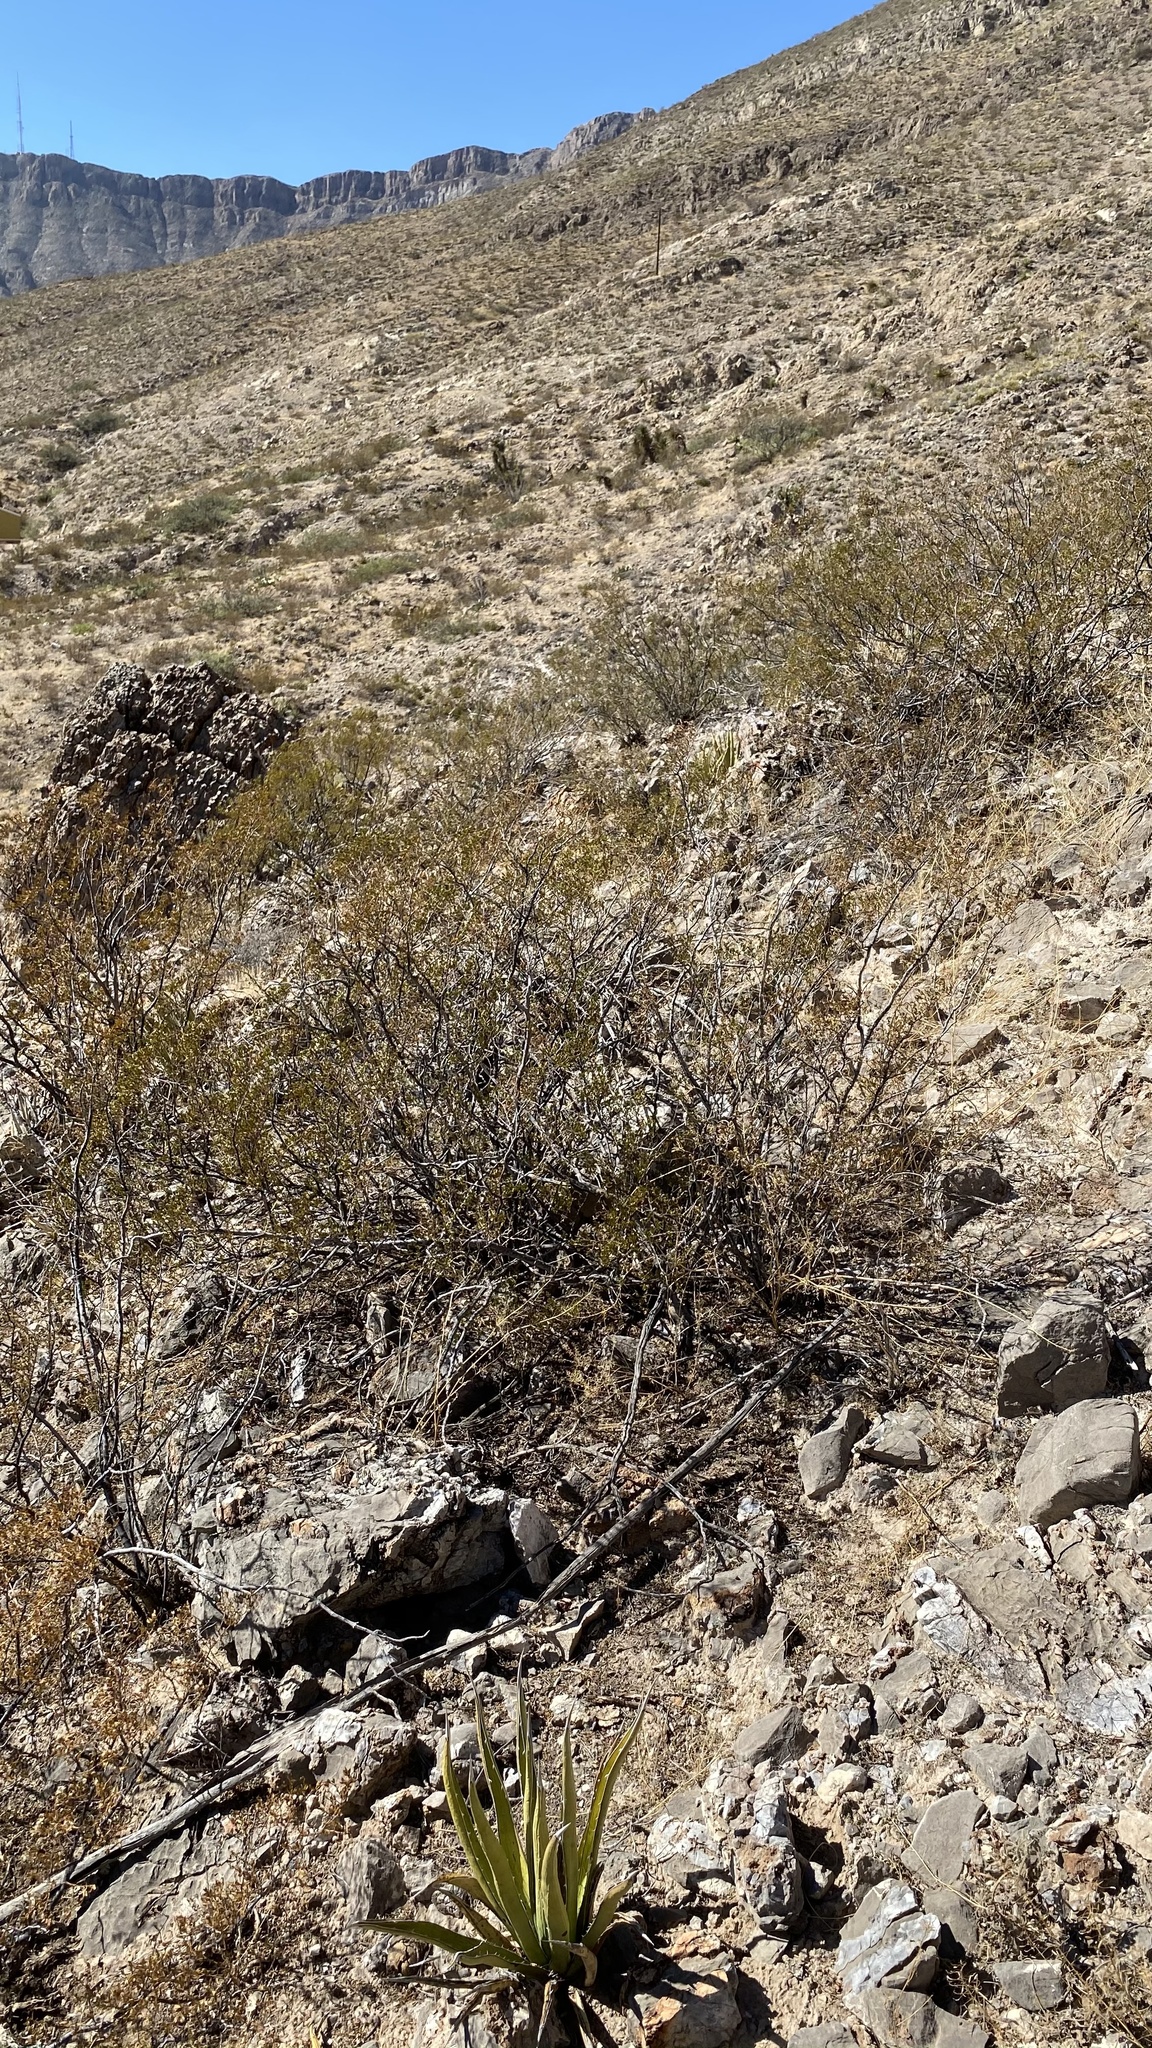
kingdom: Plantae
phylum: Tracheophyta
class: Magnoliopsida
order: Zygophyllales
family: Zygophyllaceae
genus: Larrea
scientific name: Larrea tridentata
